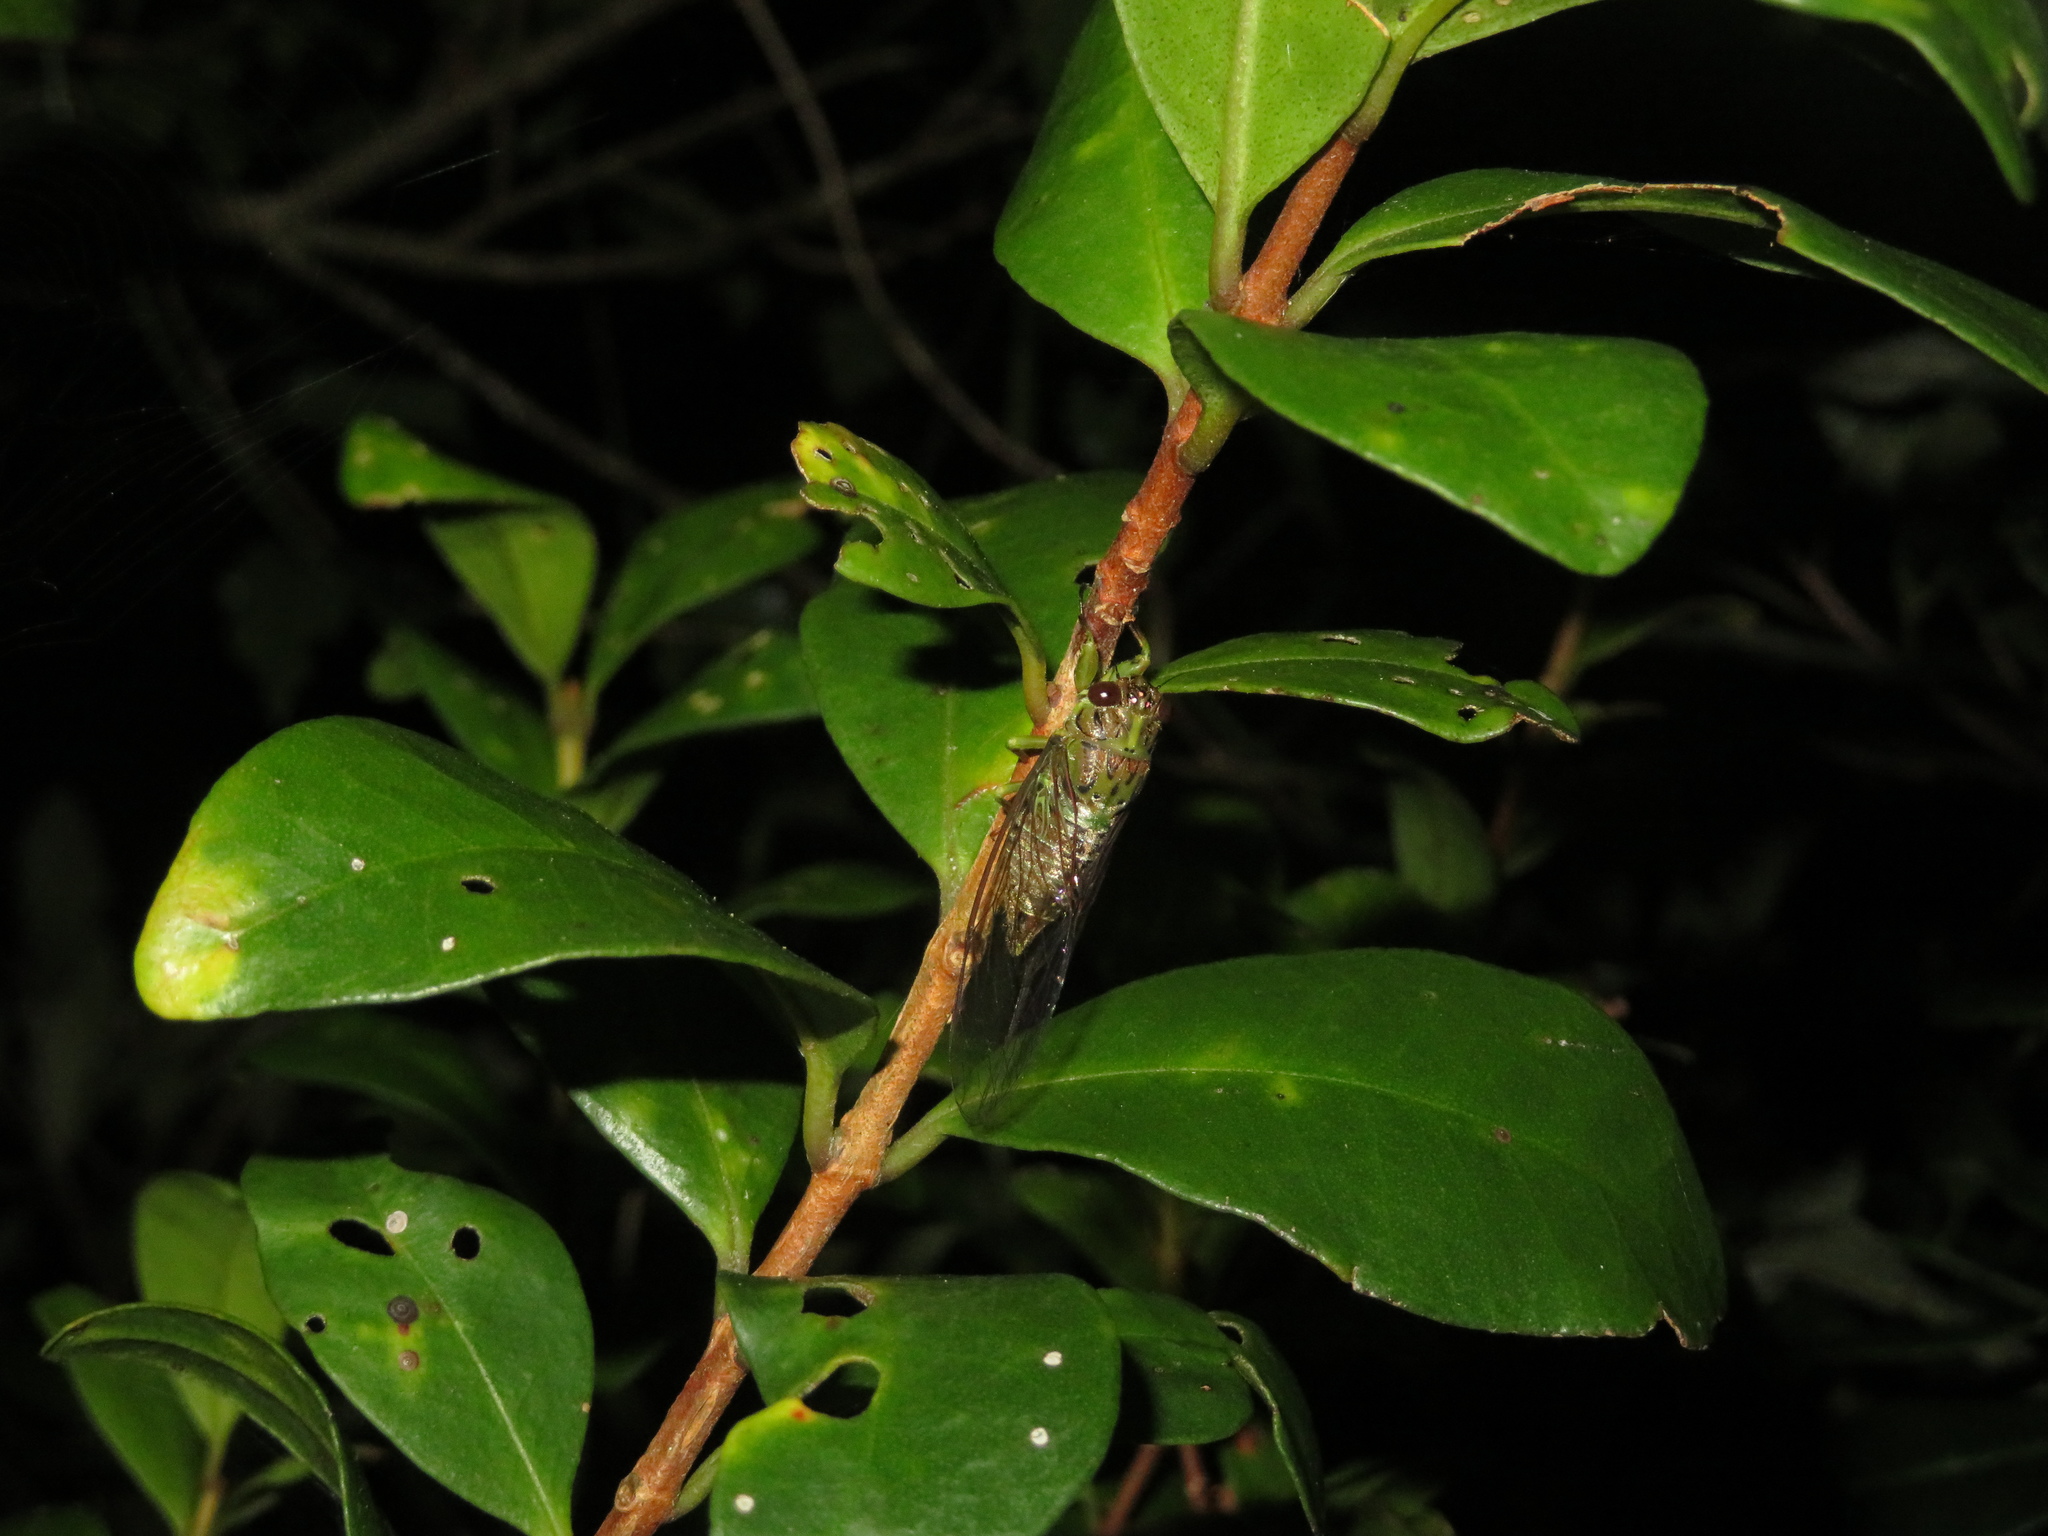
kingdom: Animalia
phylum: Arthropoda
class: Insecta
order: Hemiptera
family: Cicadidae
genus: Kikihia
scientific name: Kikihia scutellaris
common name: Lesser bronze cicada
